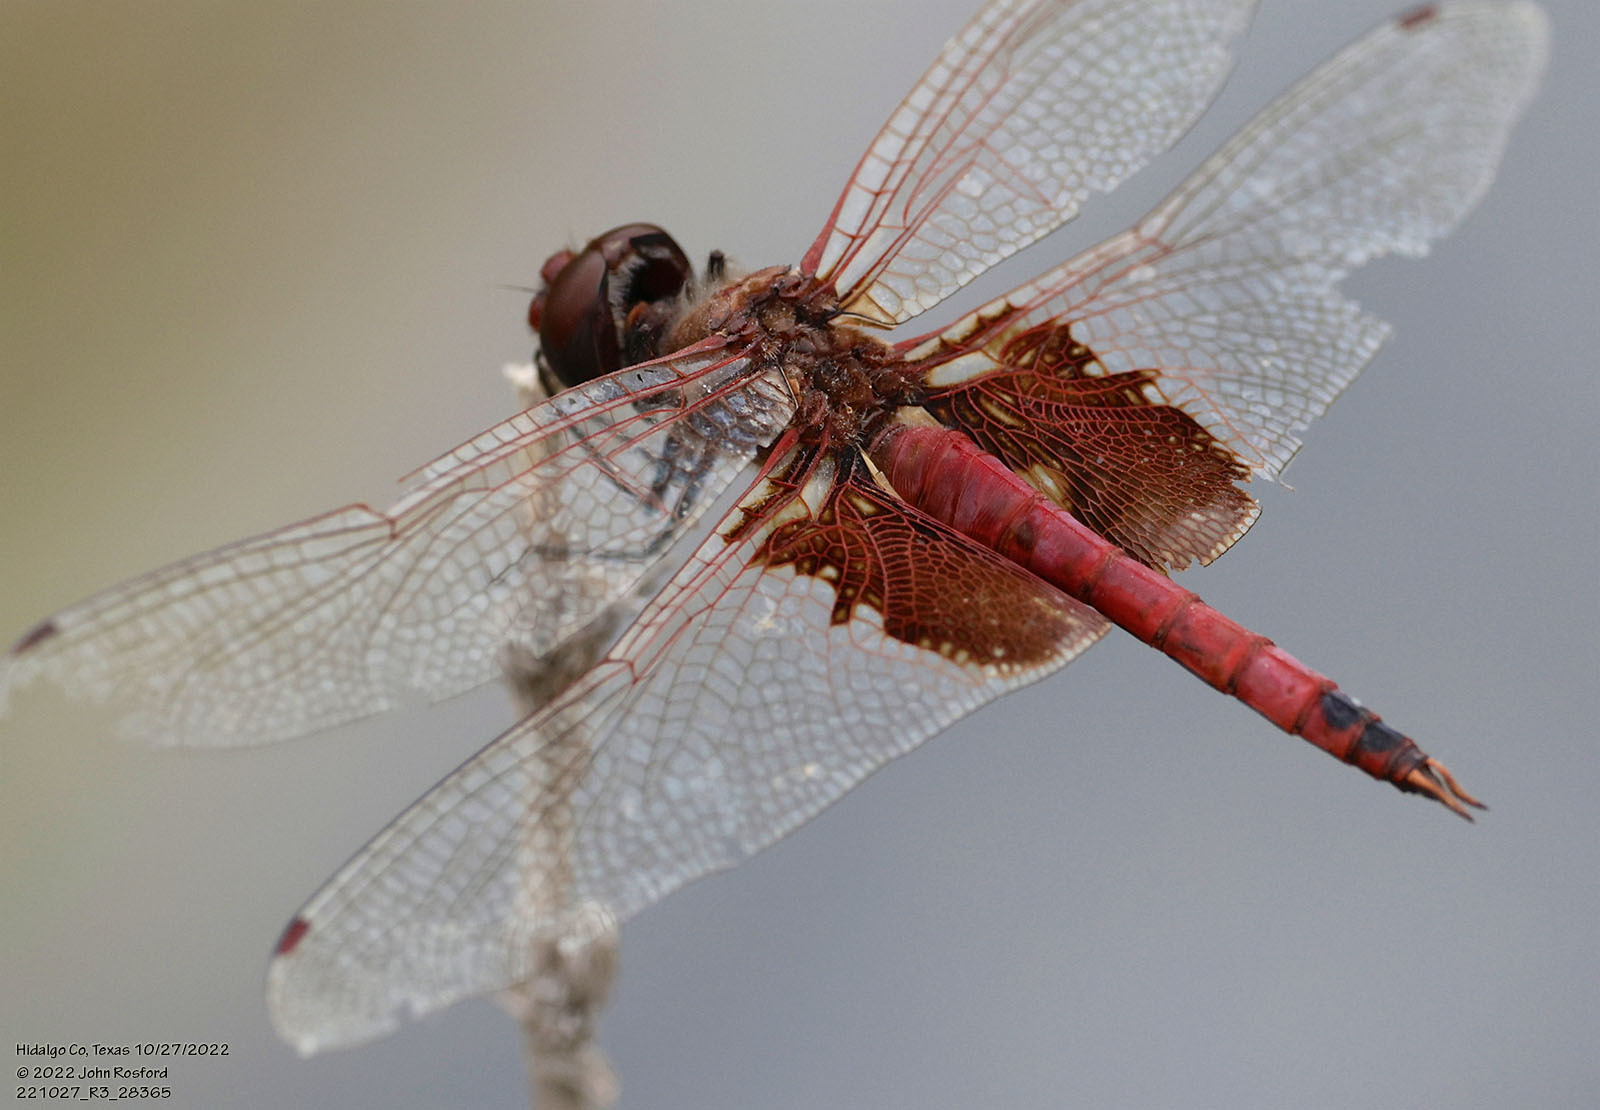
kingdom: Animalia
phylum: Arthropoda
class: Insecta
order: Odonata
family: Libellulidae
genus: Tramea
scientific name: Tramea onusta
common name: Red saddlebags
